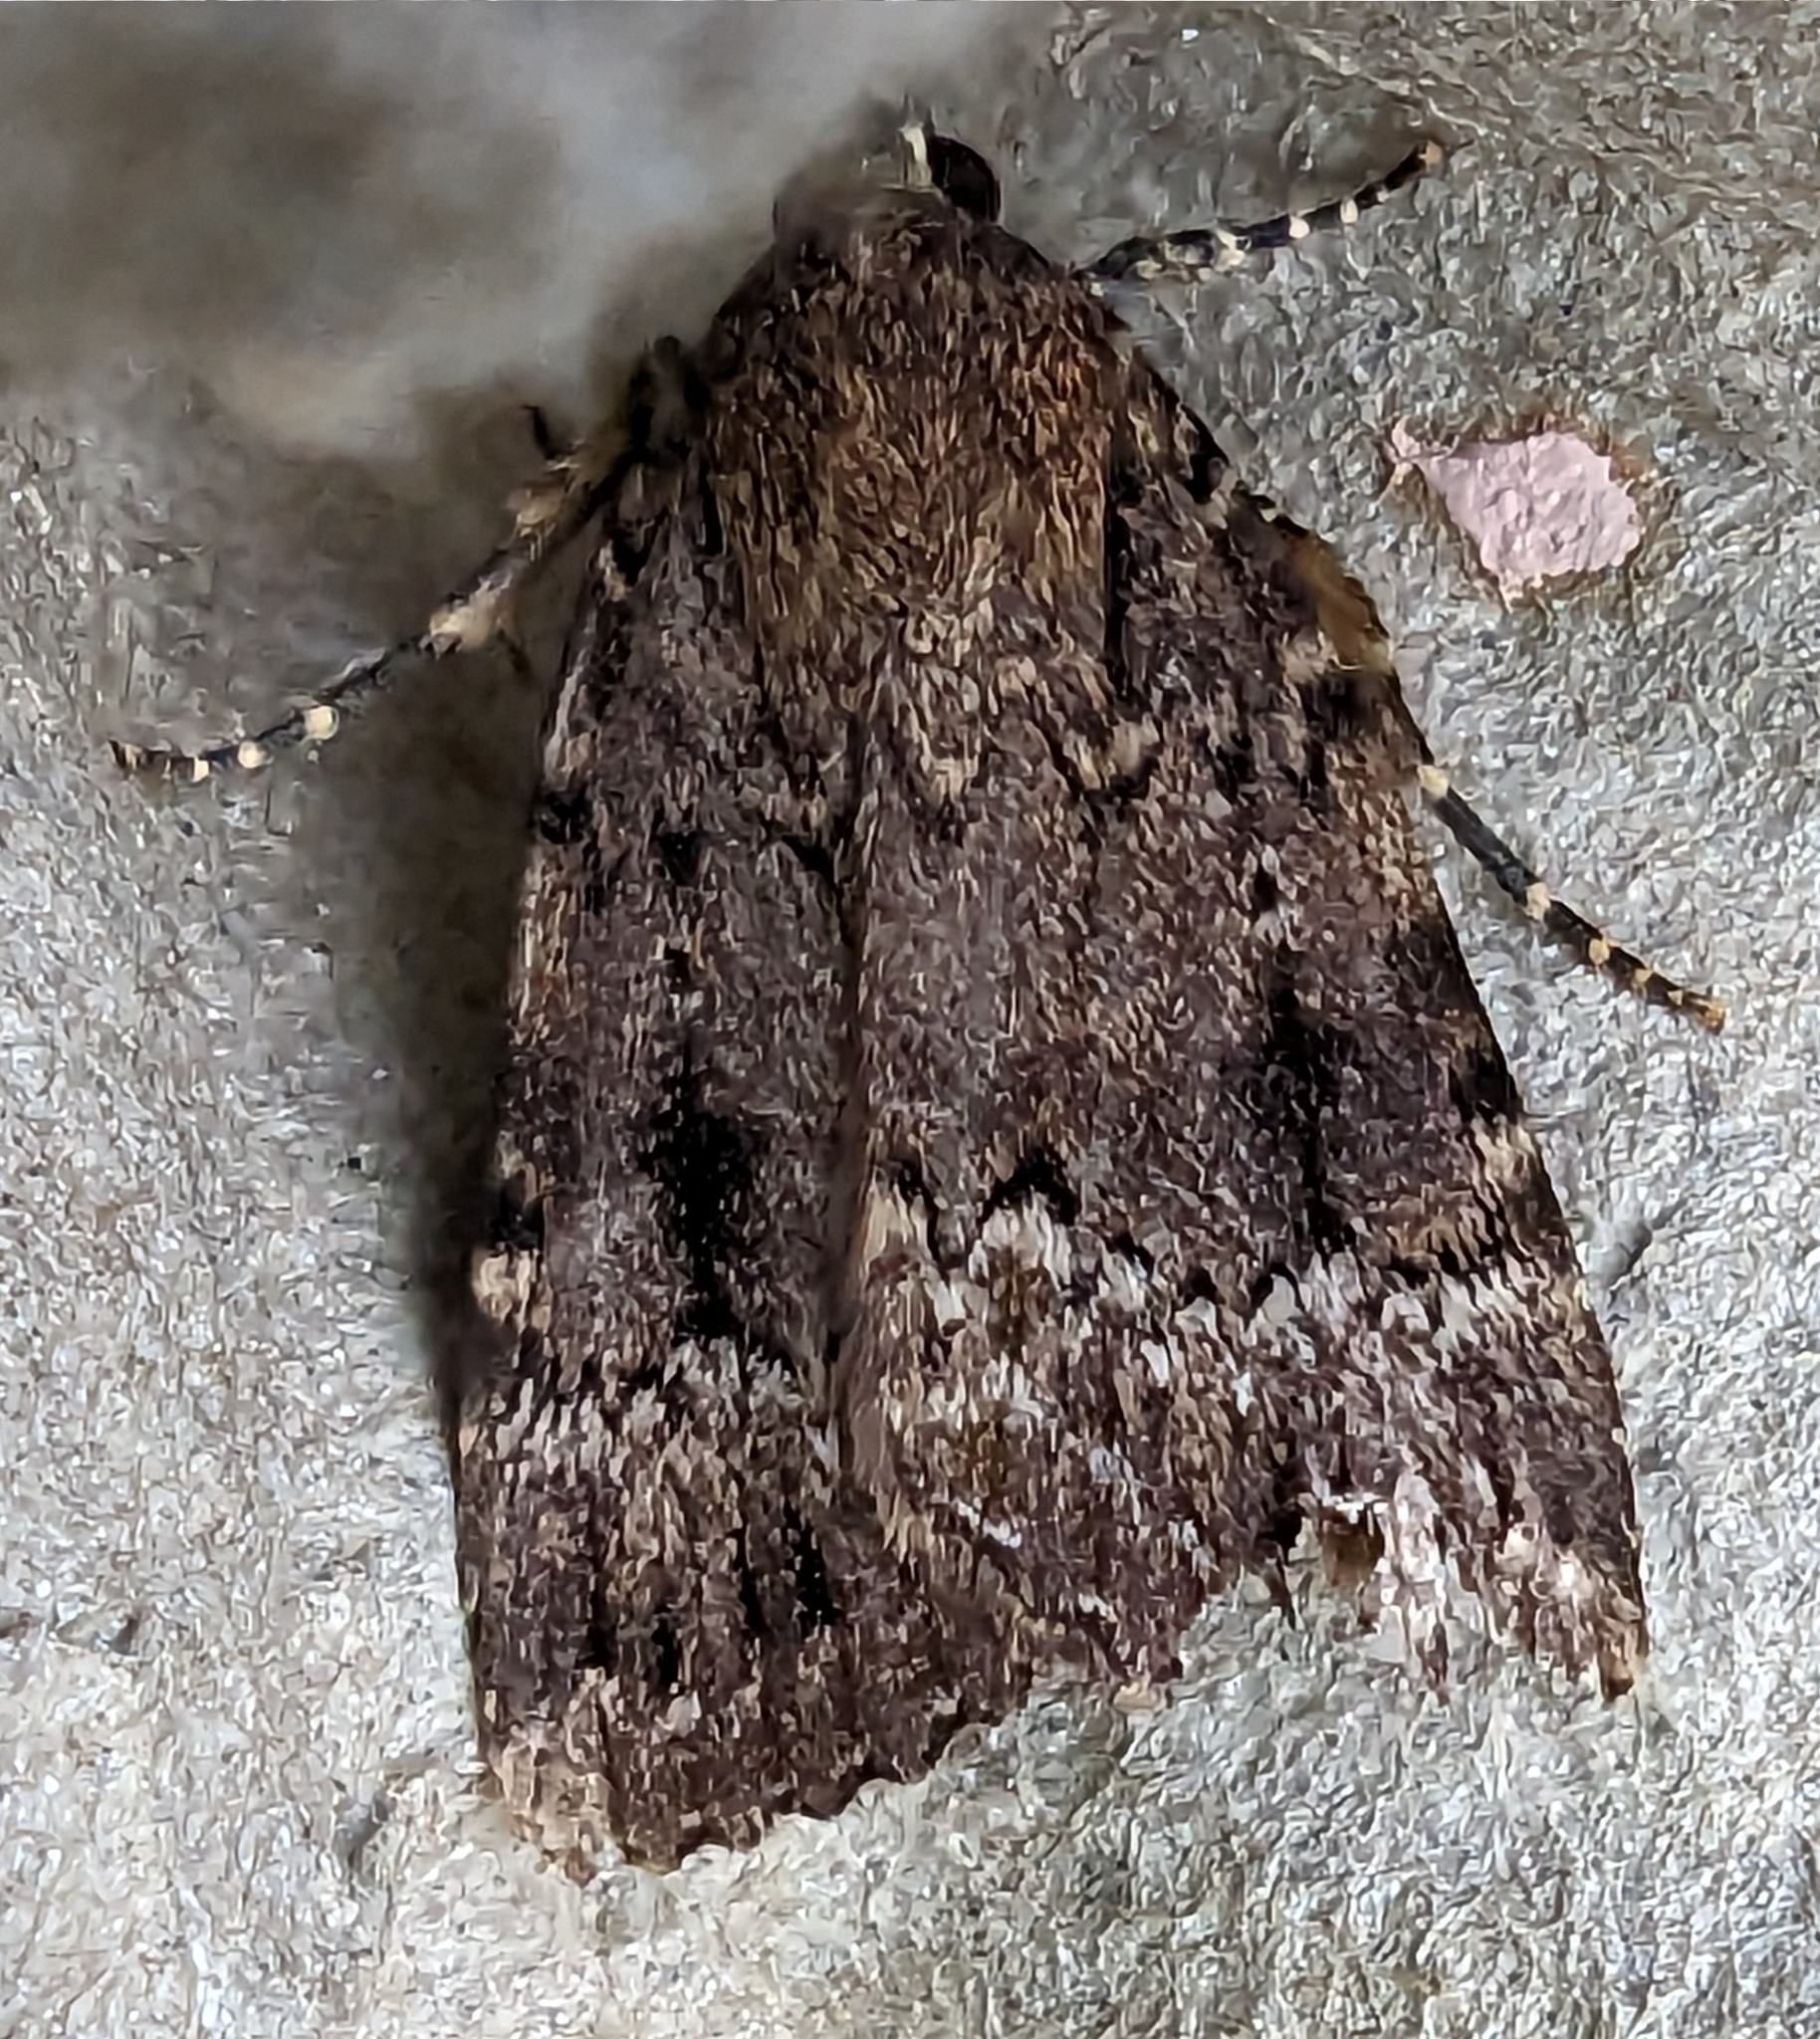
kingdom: Animalia
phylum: Arthropoda
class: Insecta
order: Lepidoptera
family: Noctuidae
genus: Amphipyra
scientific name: Amphipyra
